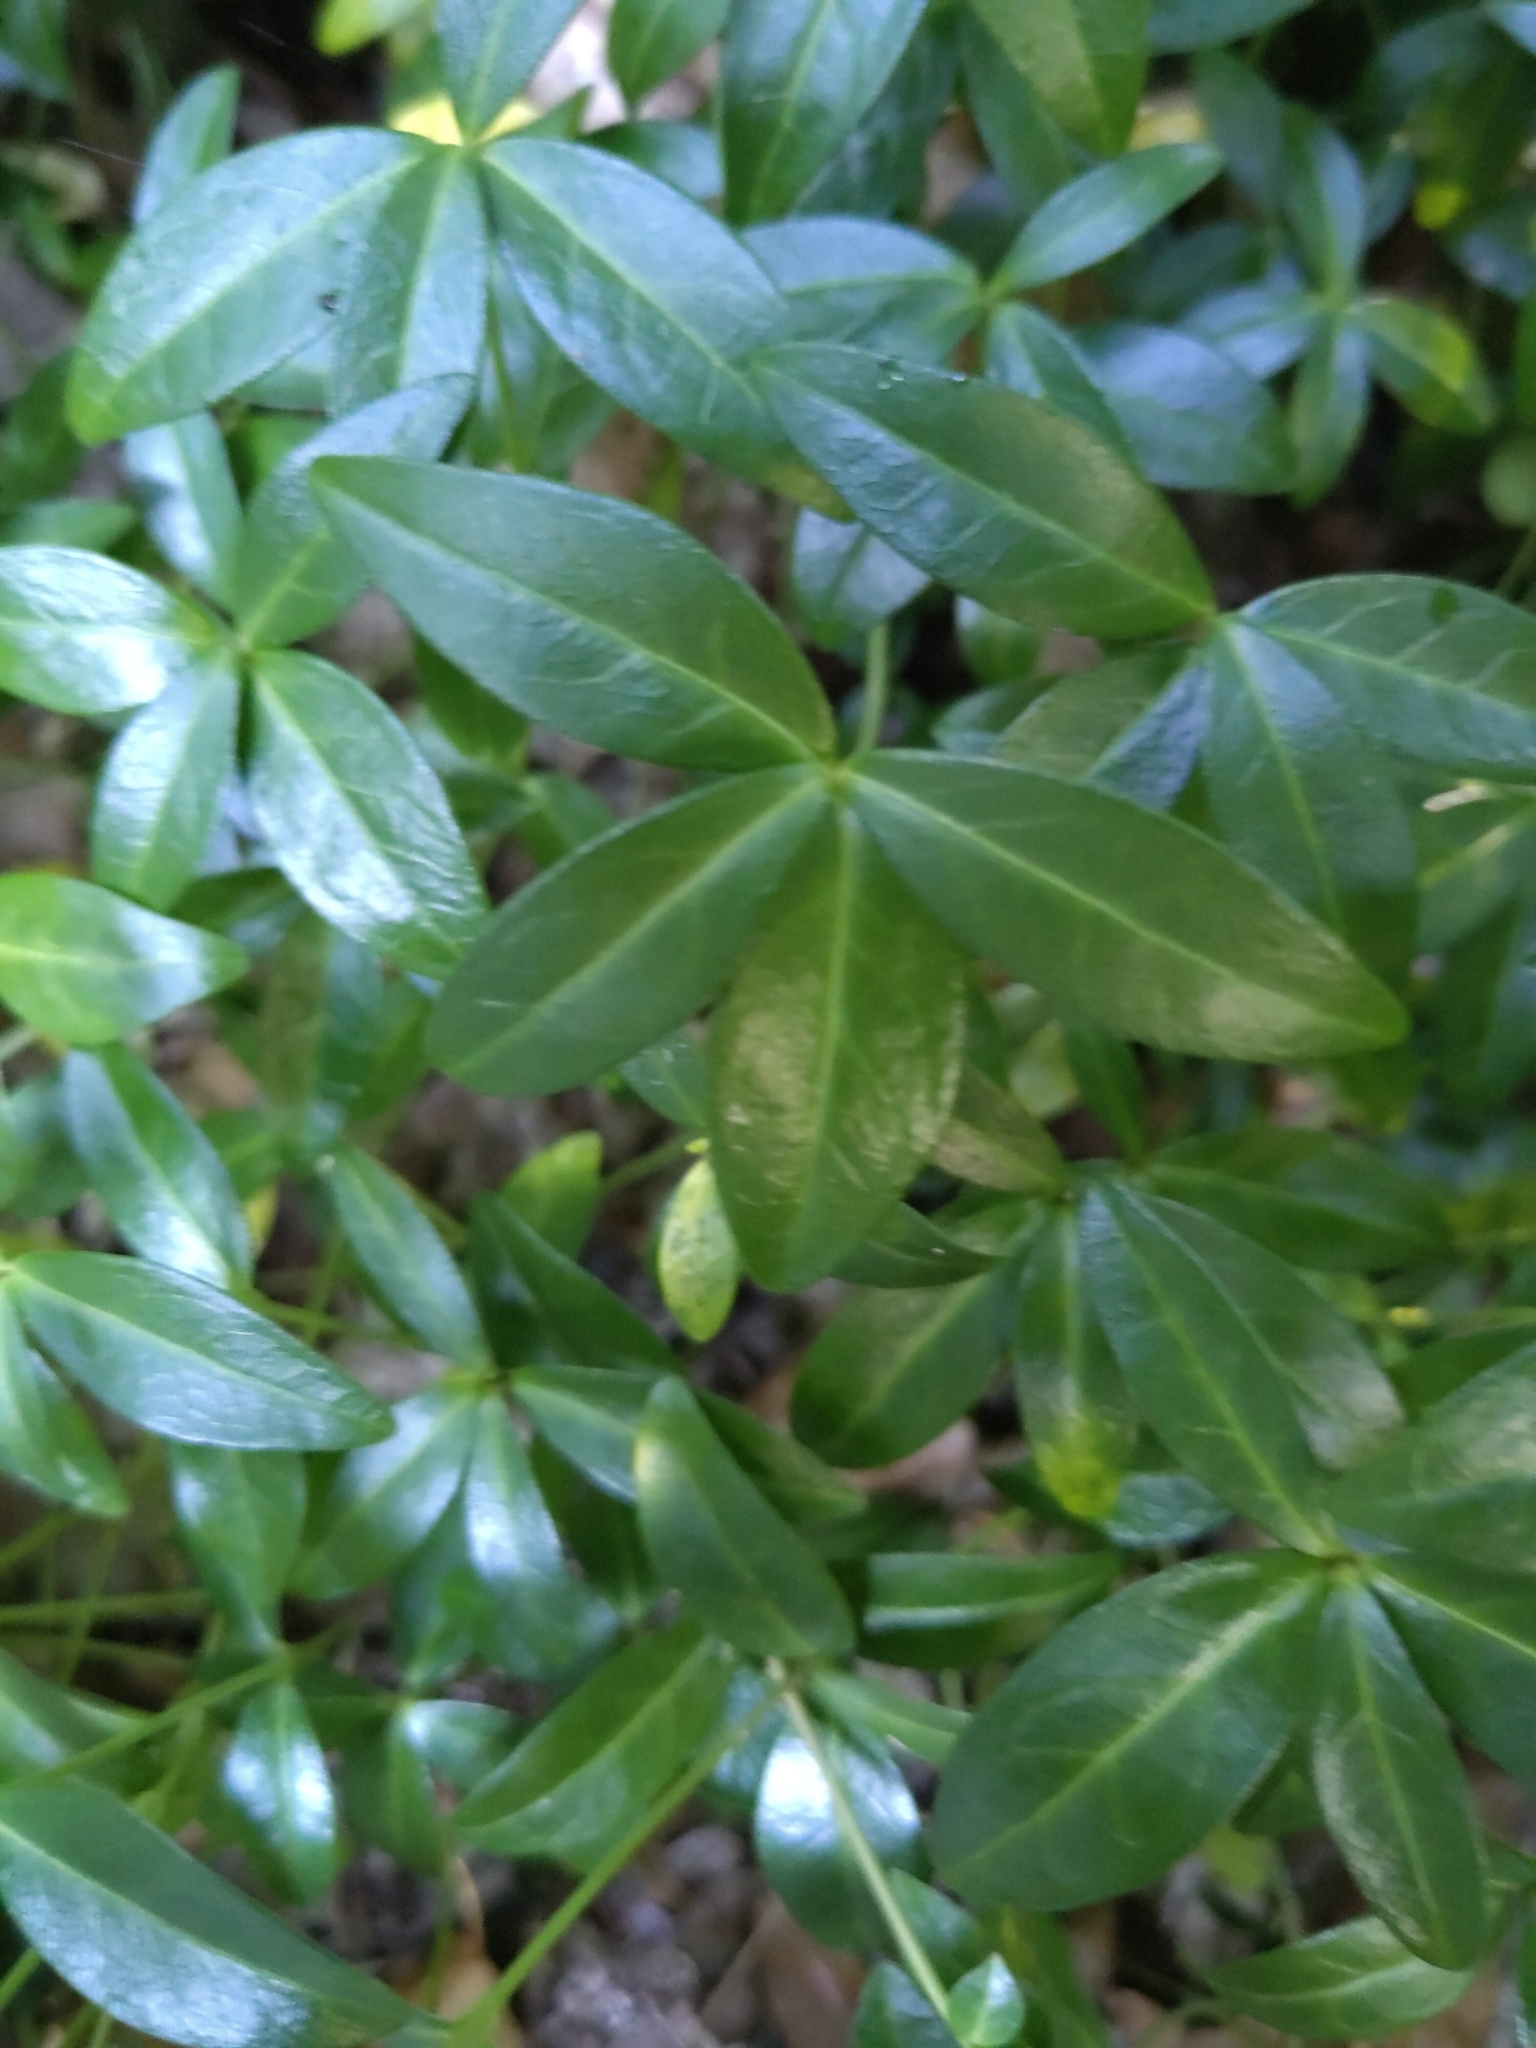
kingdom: Plantae
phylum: Tracheophyta
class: Magnoliopsida
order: Gentianales
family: Apocynaceae
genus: Vinca
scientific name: Vinca minor
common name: Lesser periwinkle
